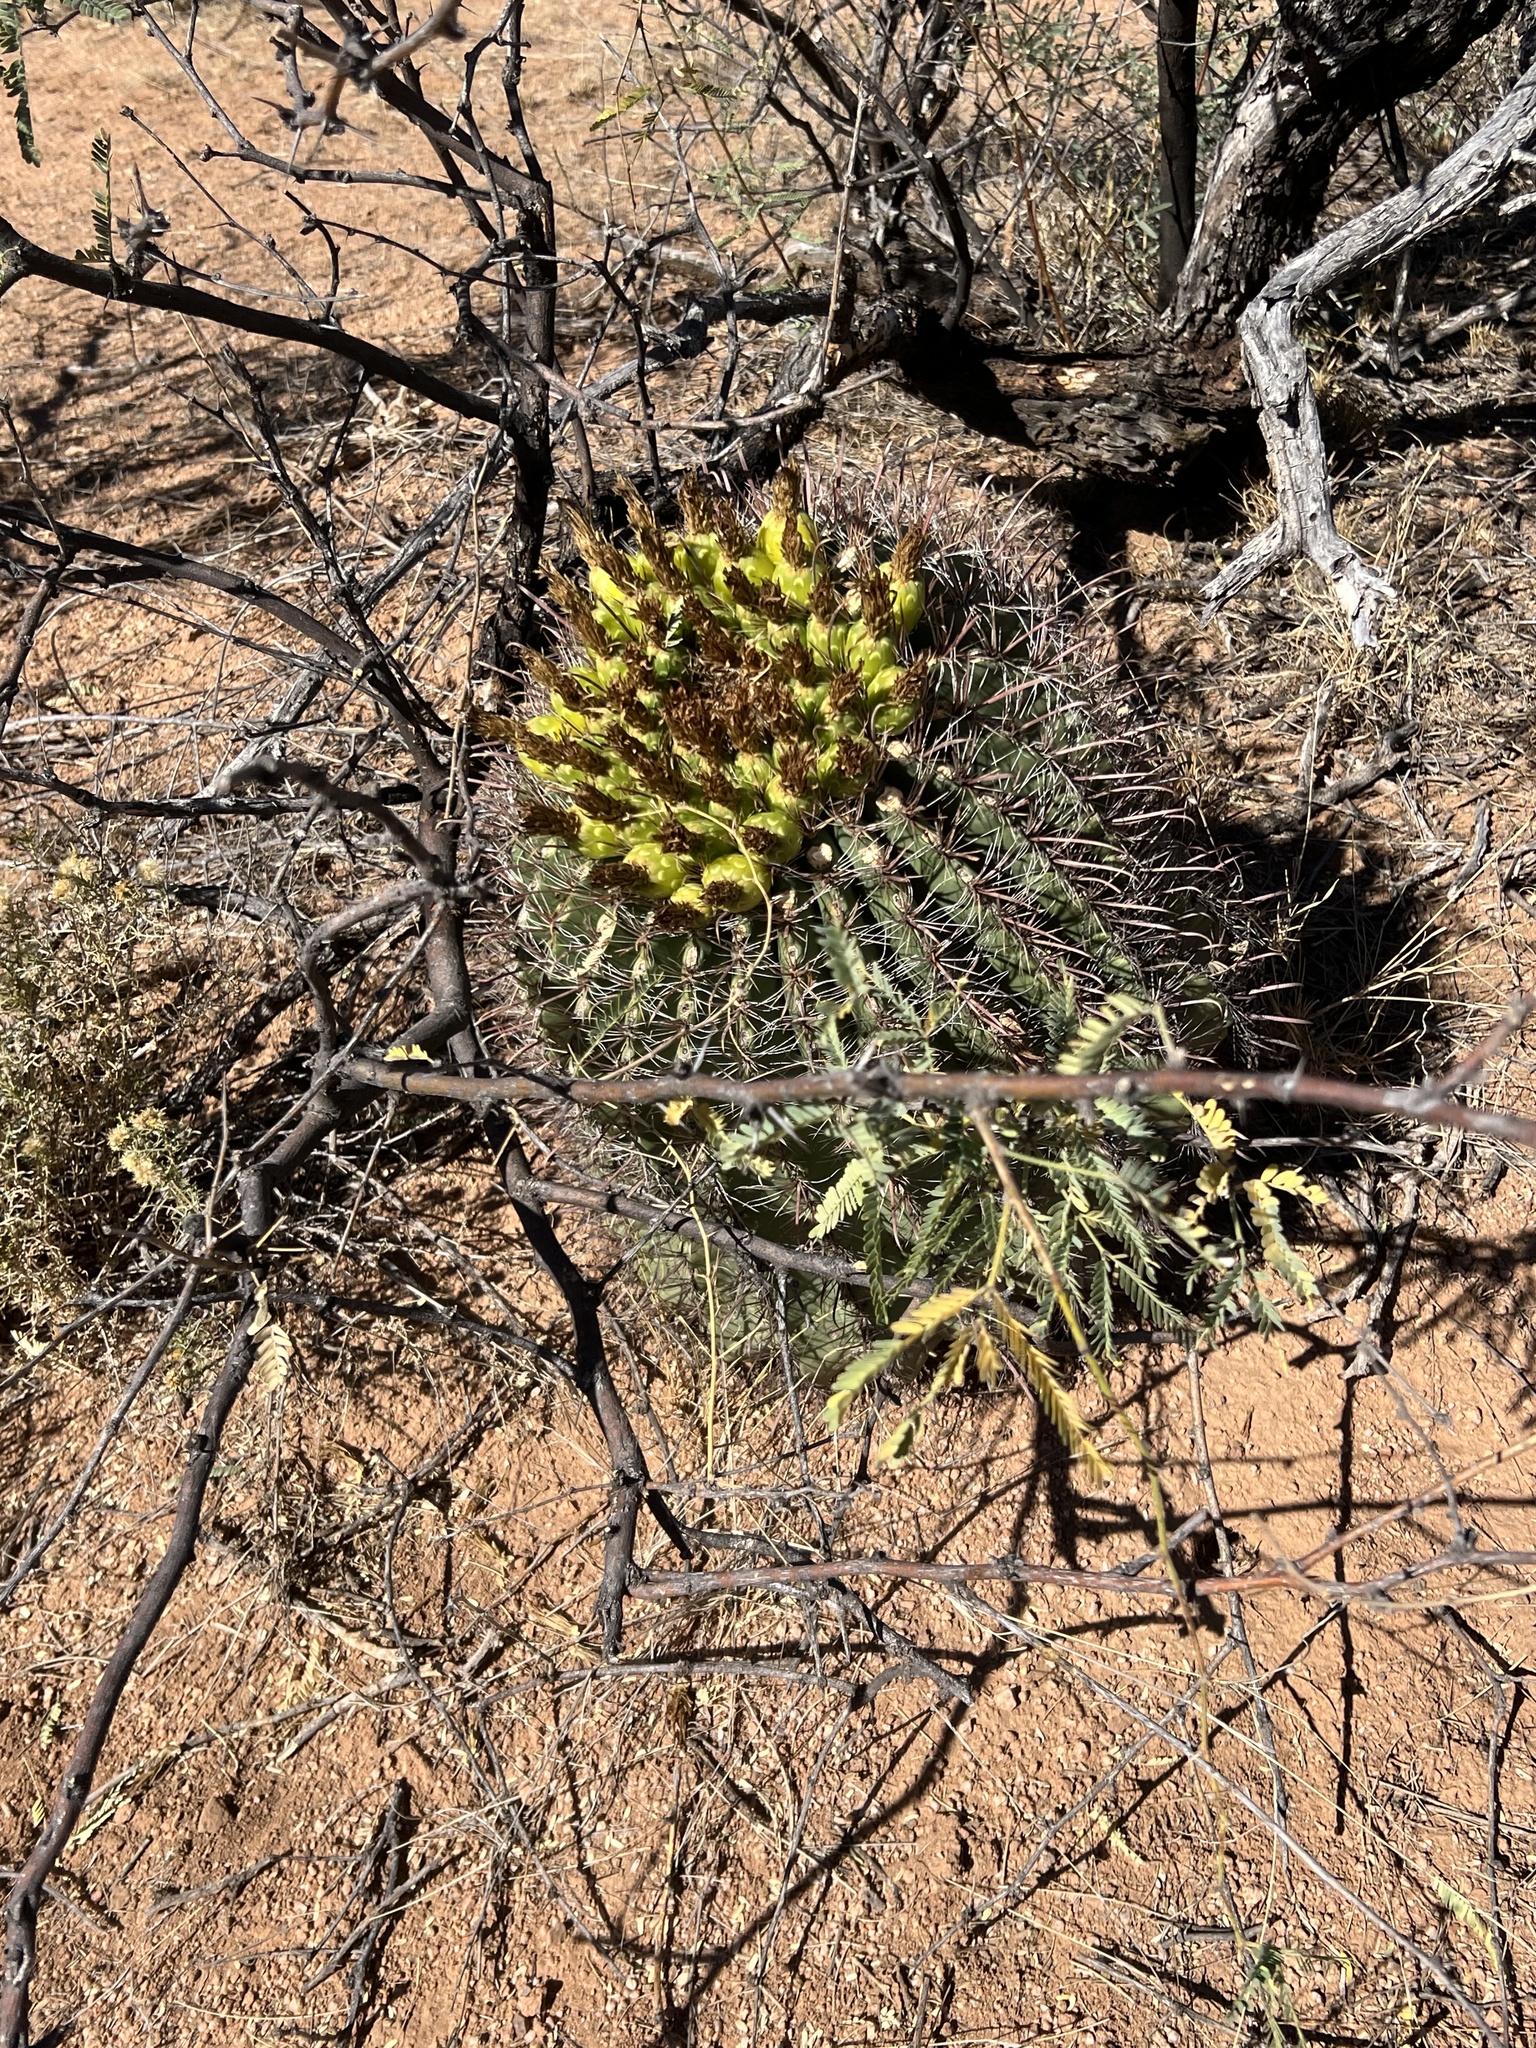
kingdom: Plantae
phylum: Tracheophyta
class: Magnoliopsida
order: Caryophyllales
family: Cactaceae
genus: Ferocactus
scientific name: Ferocactus wislizeni
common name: Candy barrel cactus
